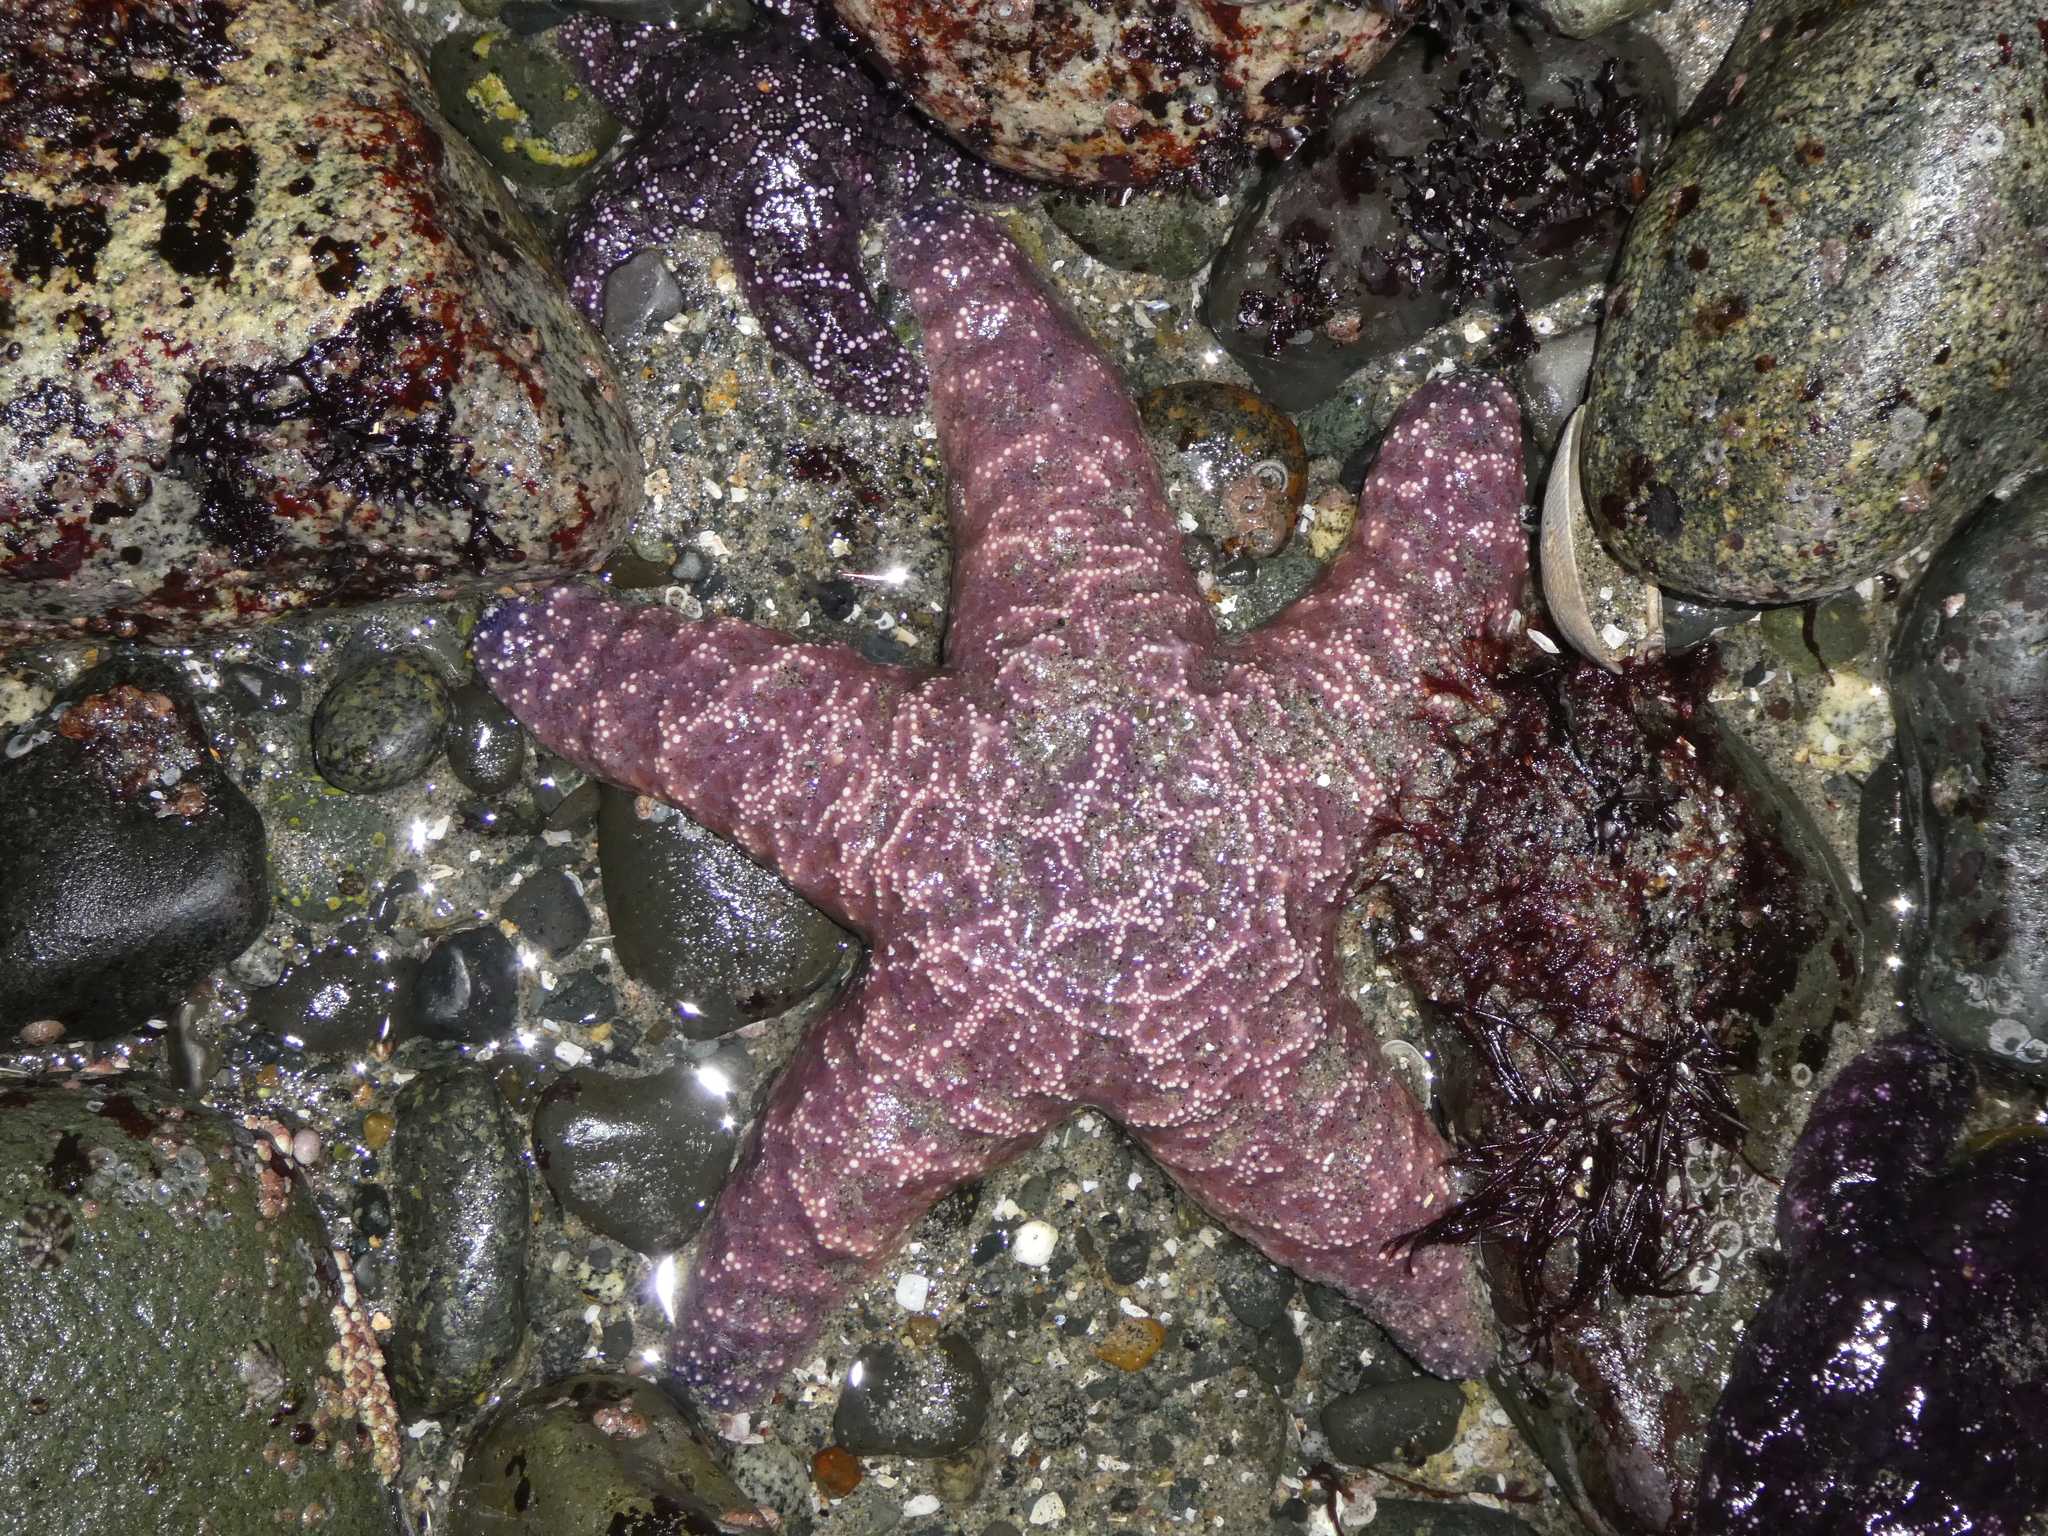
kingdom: Animalia
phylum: Echinodermata
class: Asteroidea
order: Forcipulatida
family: Asteriidae
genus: Pisaster
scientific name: Pisaster ochraceus
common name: Ochre stars
